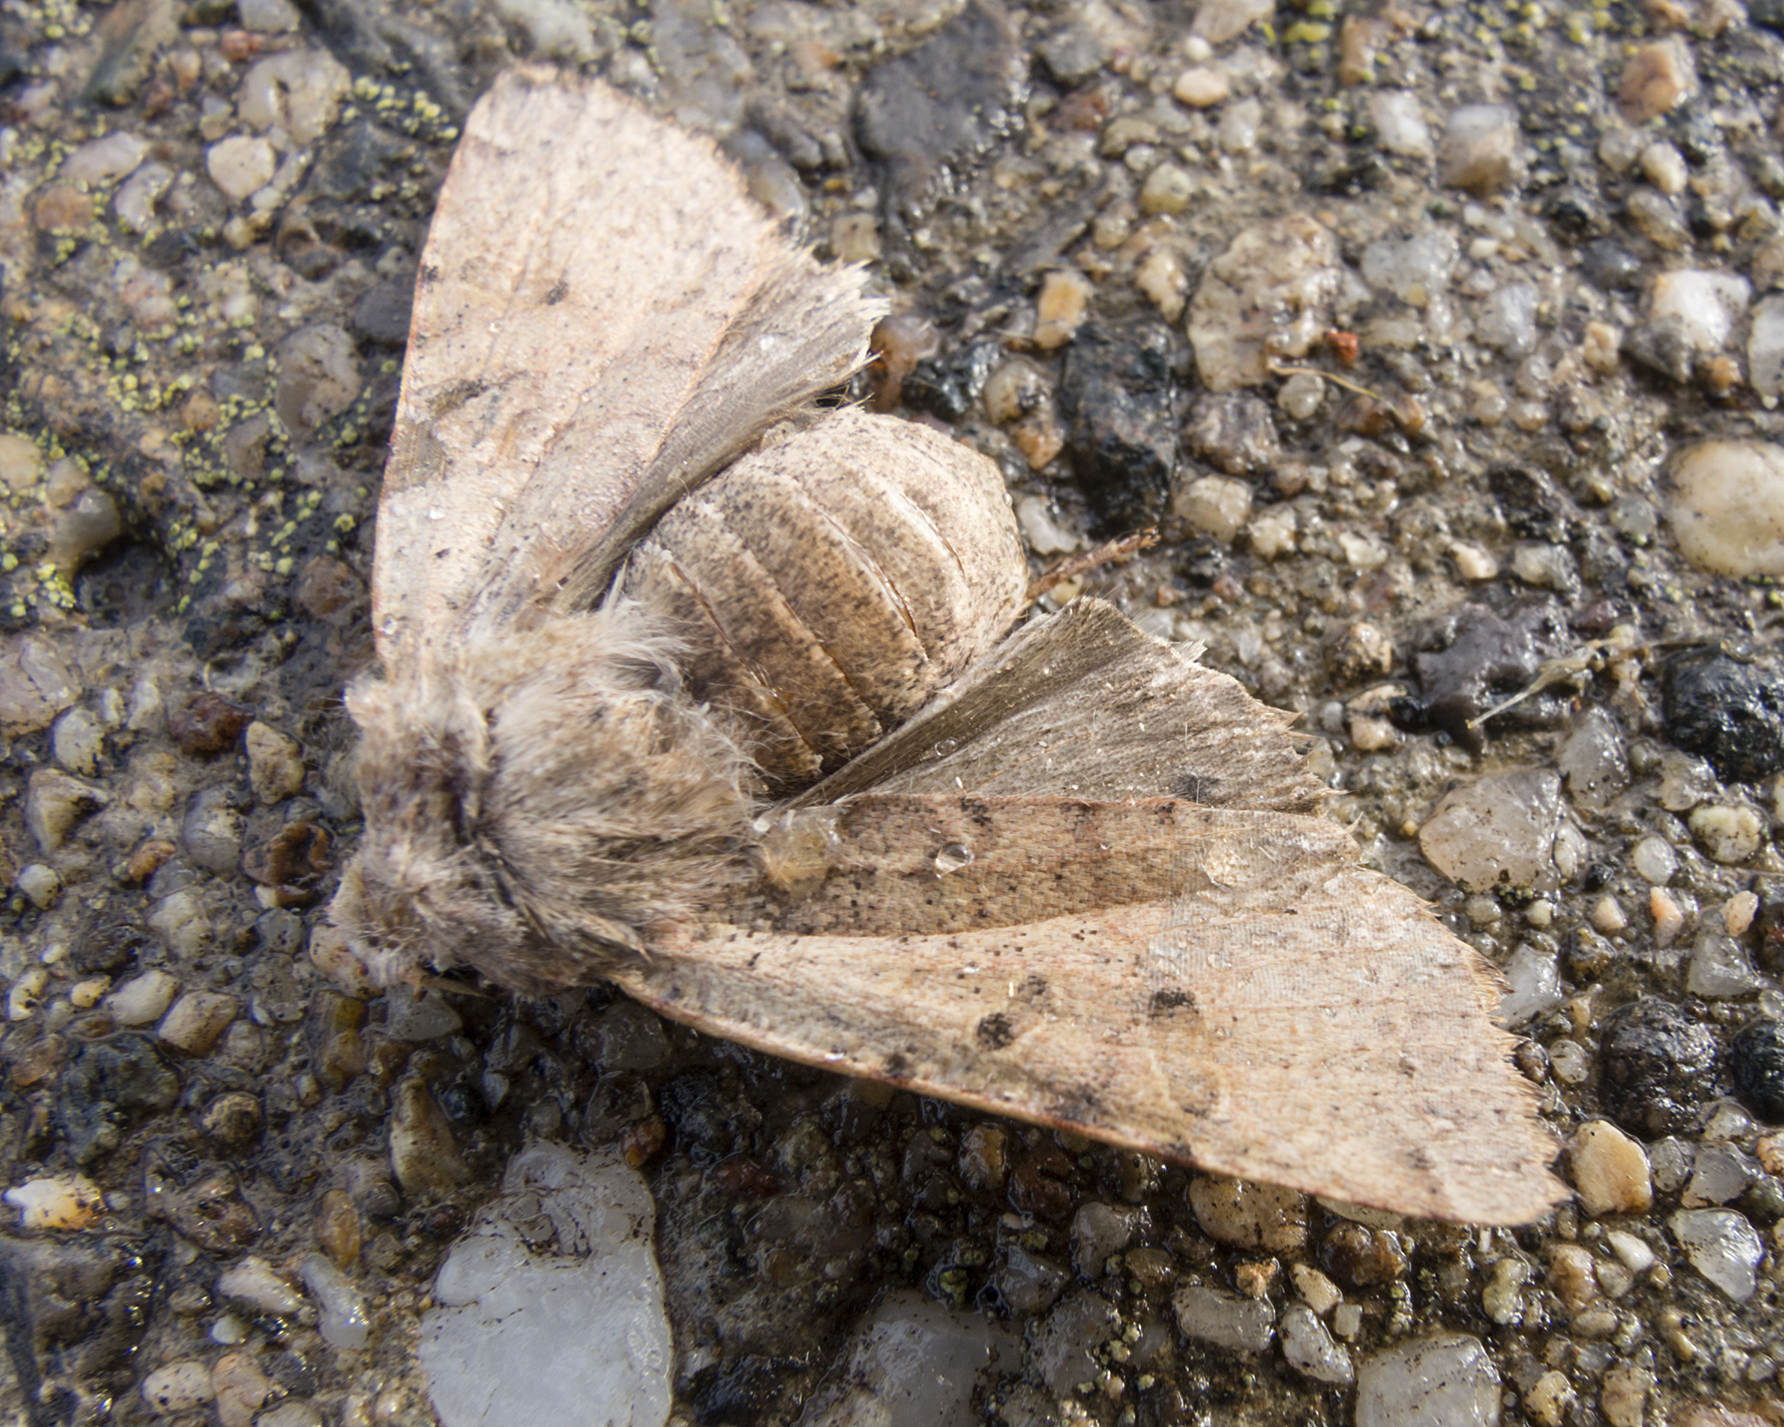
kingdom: Animalia
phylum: Arthropoda
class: Insecta
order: Lepidoptera
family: Noctuidae
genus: Agrochola
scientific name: Agrochola lychnidis
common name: Beaded chestnut
